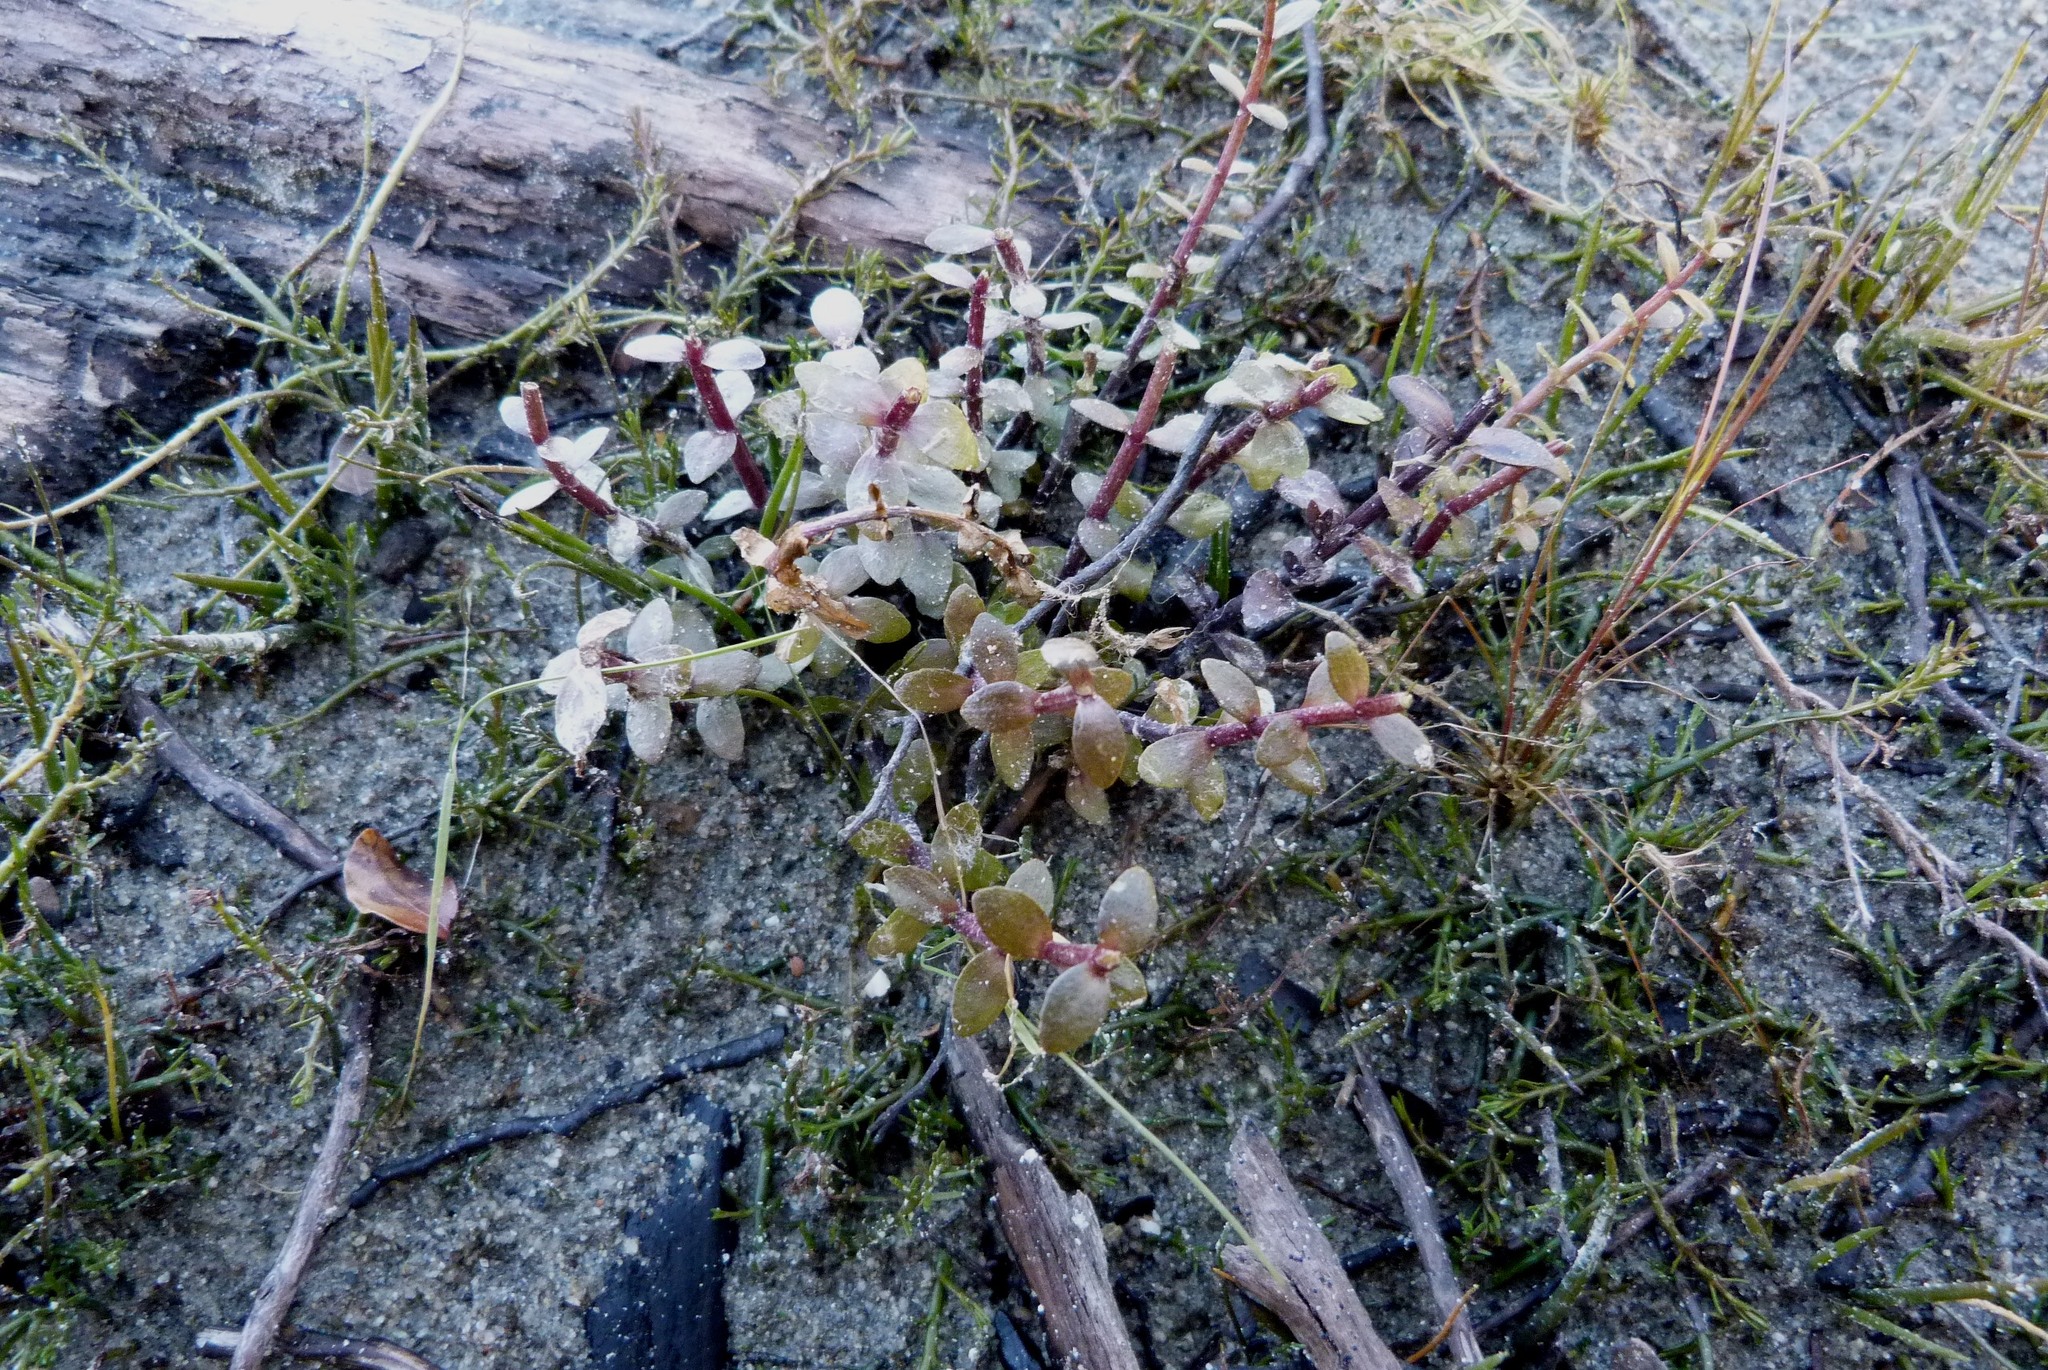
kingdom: Plantae
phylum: Tracheophyta
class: Magnoliopsida
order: Lamiales
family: Plantaginaceae
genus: Gratiola
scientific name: Gratiola sexdentata
